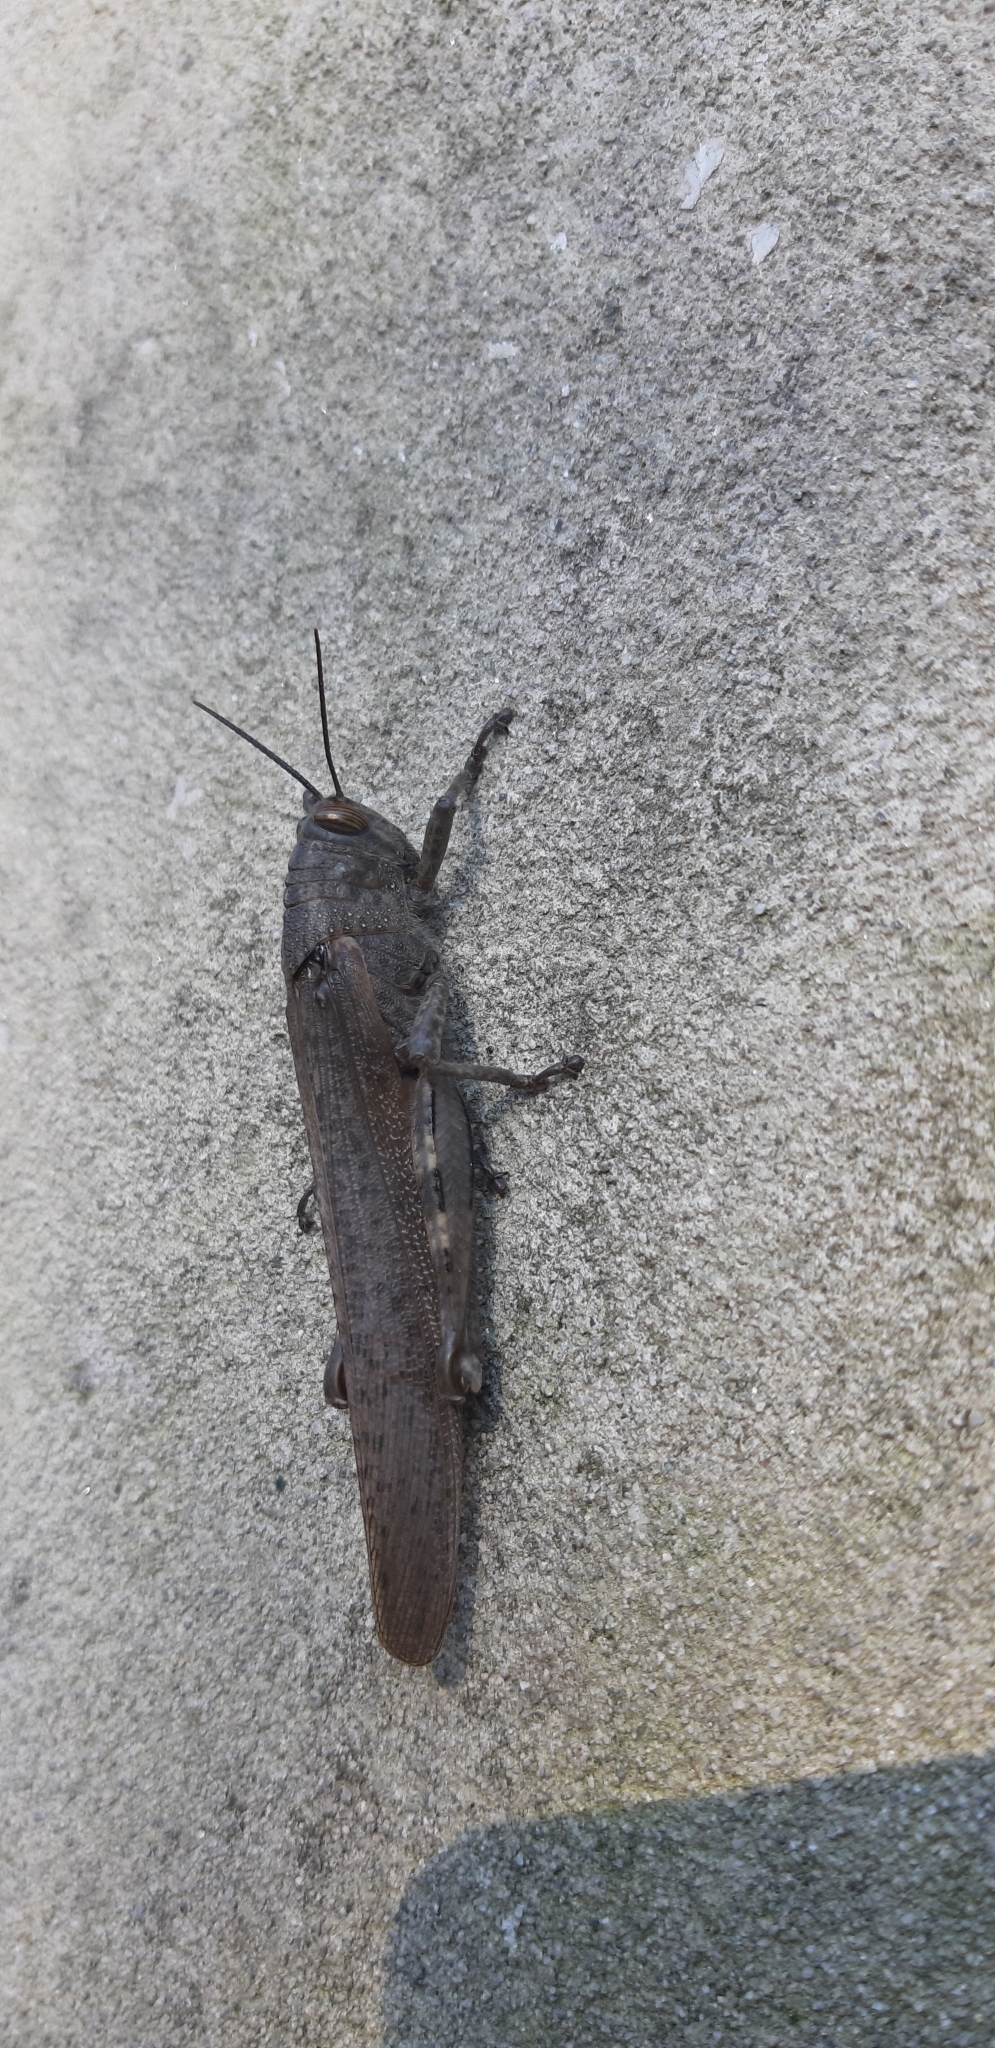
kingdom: Animalia
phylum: Arthropoda
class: Insecta
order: Orthoptera
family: Acrididae
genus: Anacridium
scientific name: Anacridium aegyptium
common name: Egyptian grasshopper
